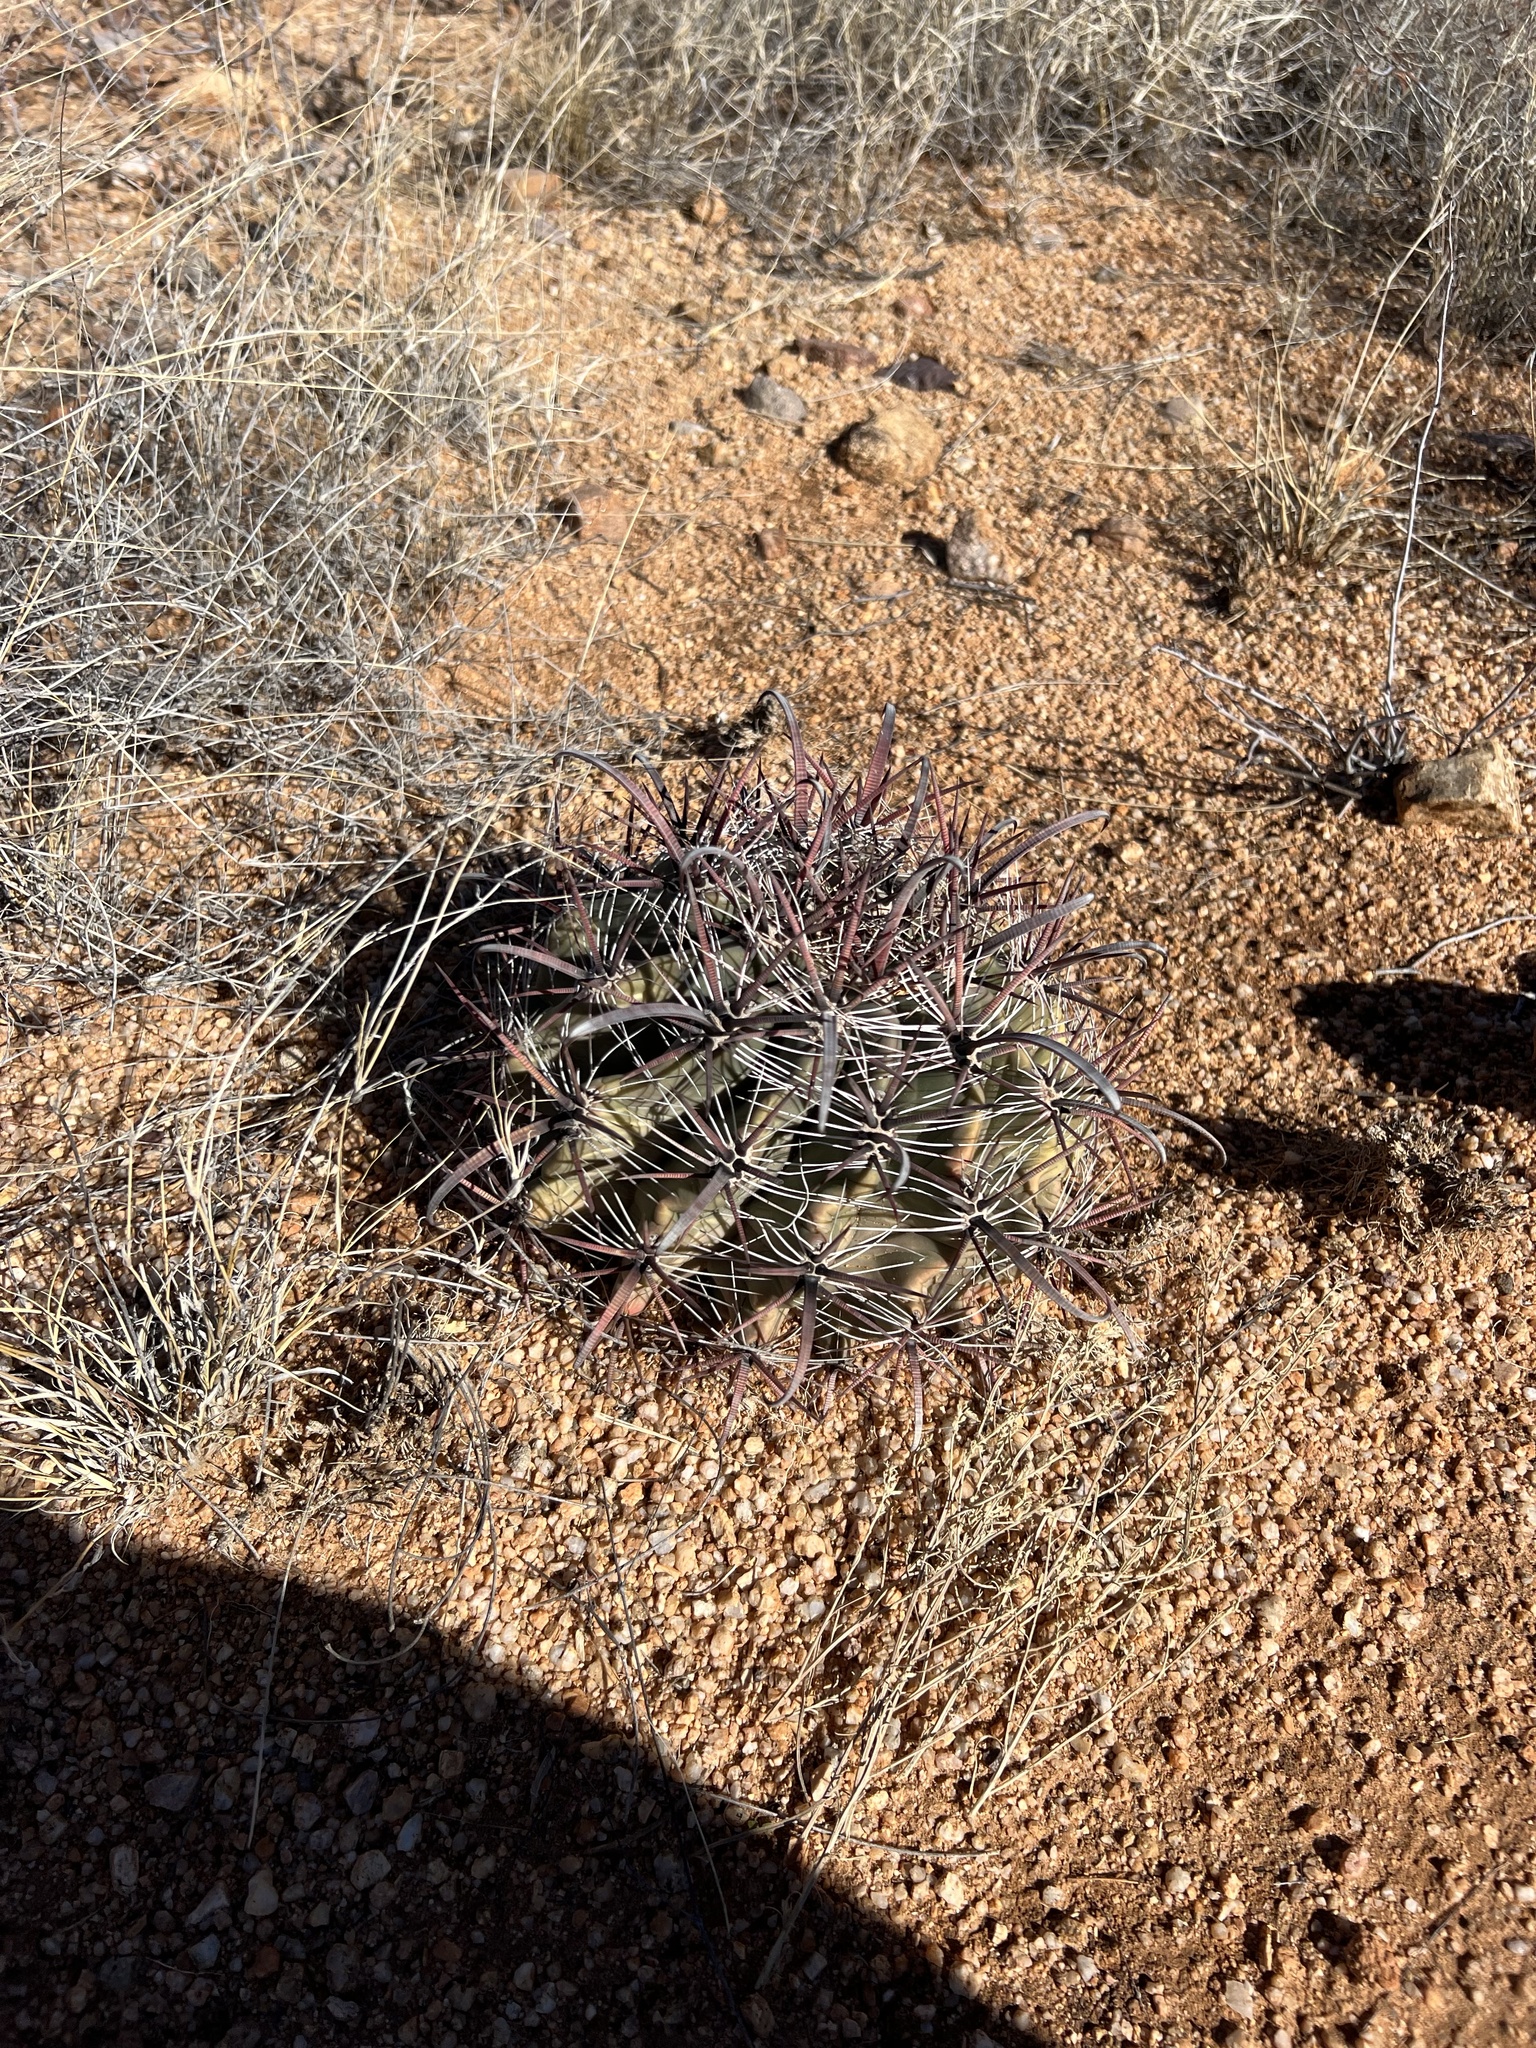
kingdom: Plantae
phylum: Tracheophyta
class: Magnoliopsida
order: Caryophyllales
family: Cactaceae
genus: Ferocactus
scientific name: Ferocactus wislizeni
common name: Candy barrel cactus
